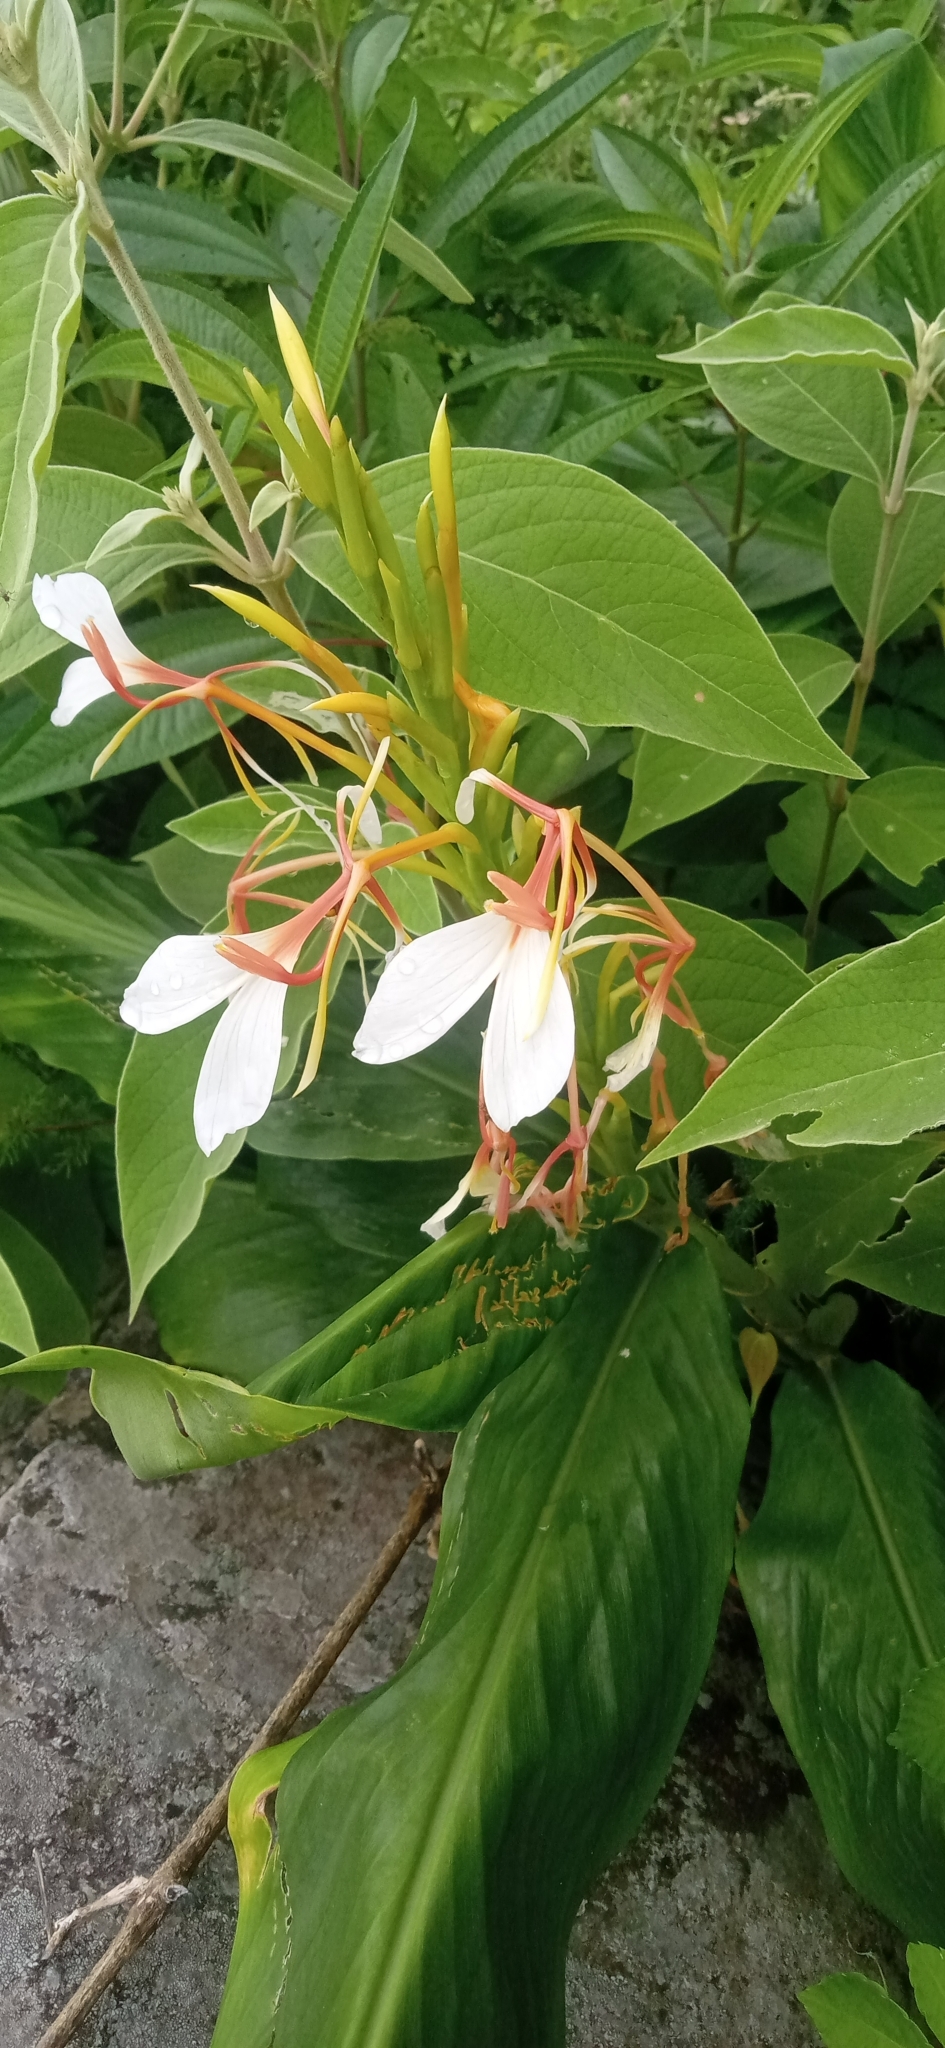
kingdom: Plantae
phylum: Tracheophyta
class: Liliopsida
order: Zingiberales
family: Zingiberaceae
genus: Hedychium
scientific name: Hedychium spicatum
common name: Spiked ginger-lily
